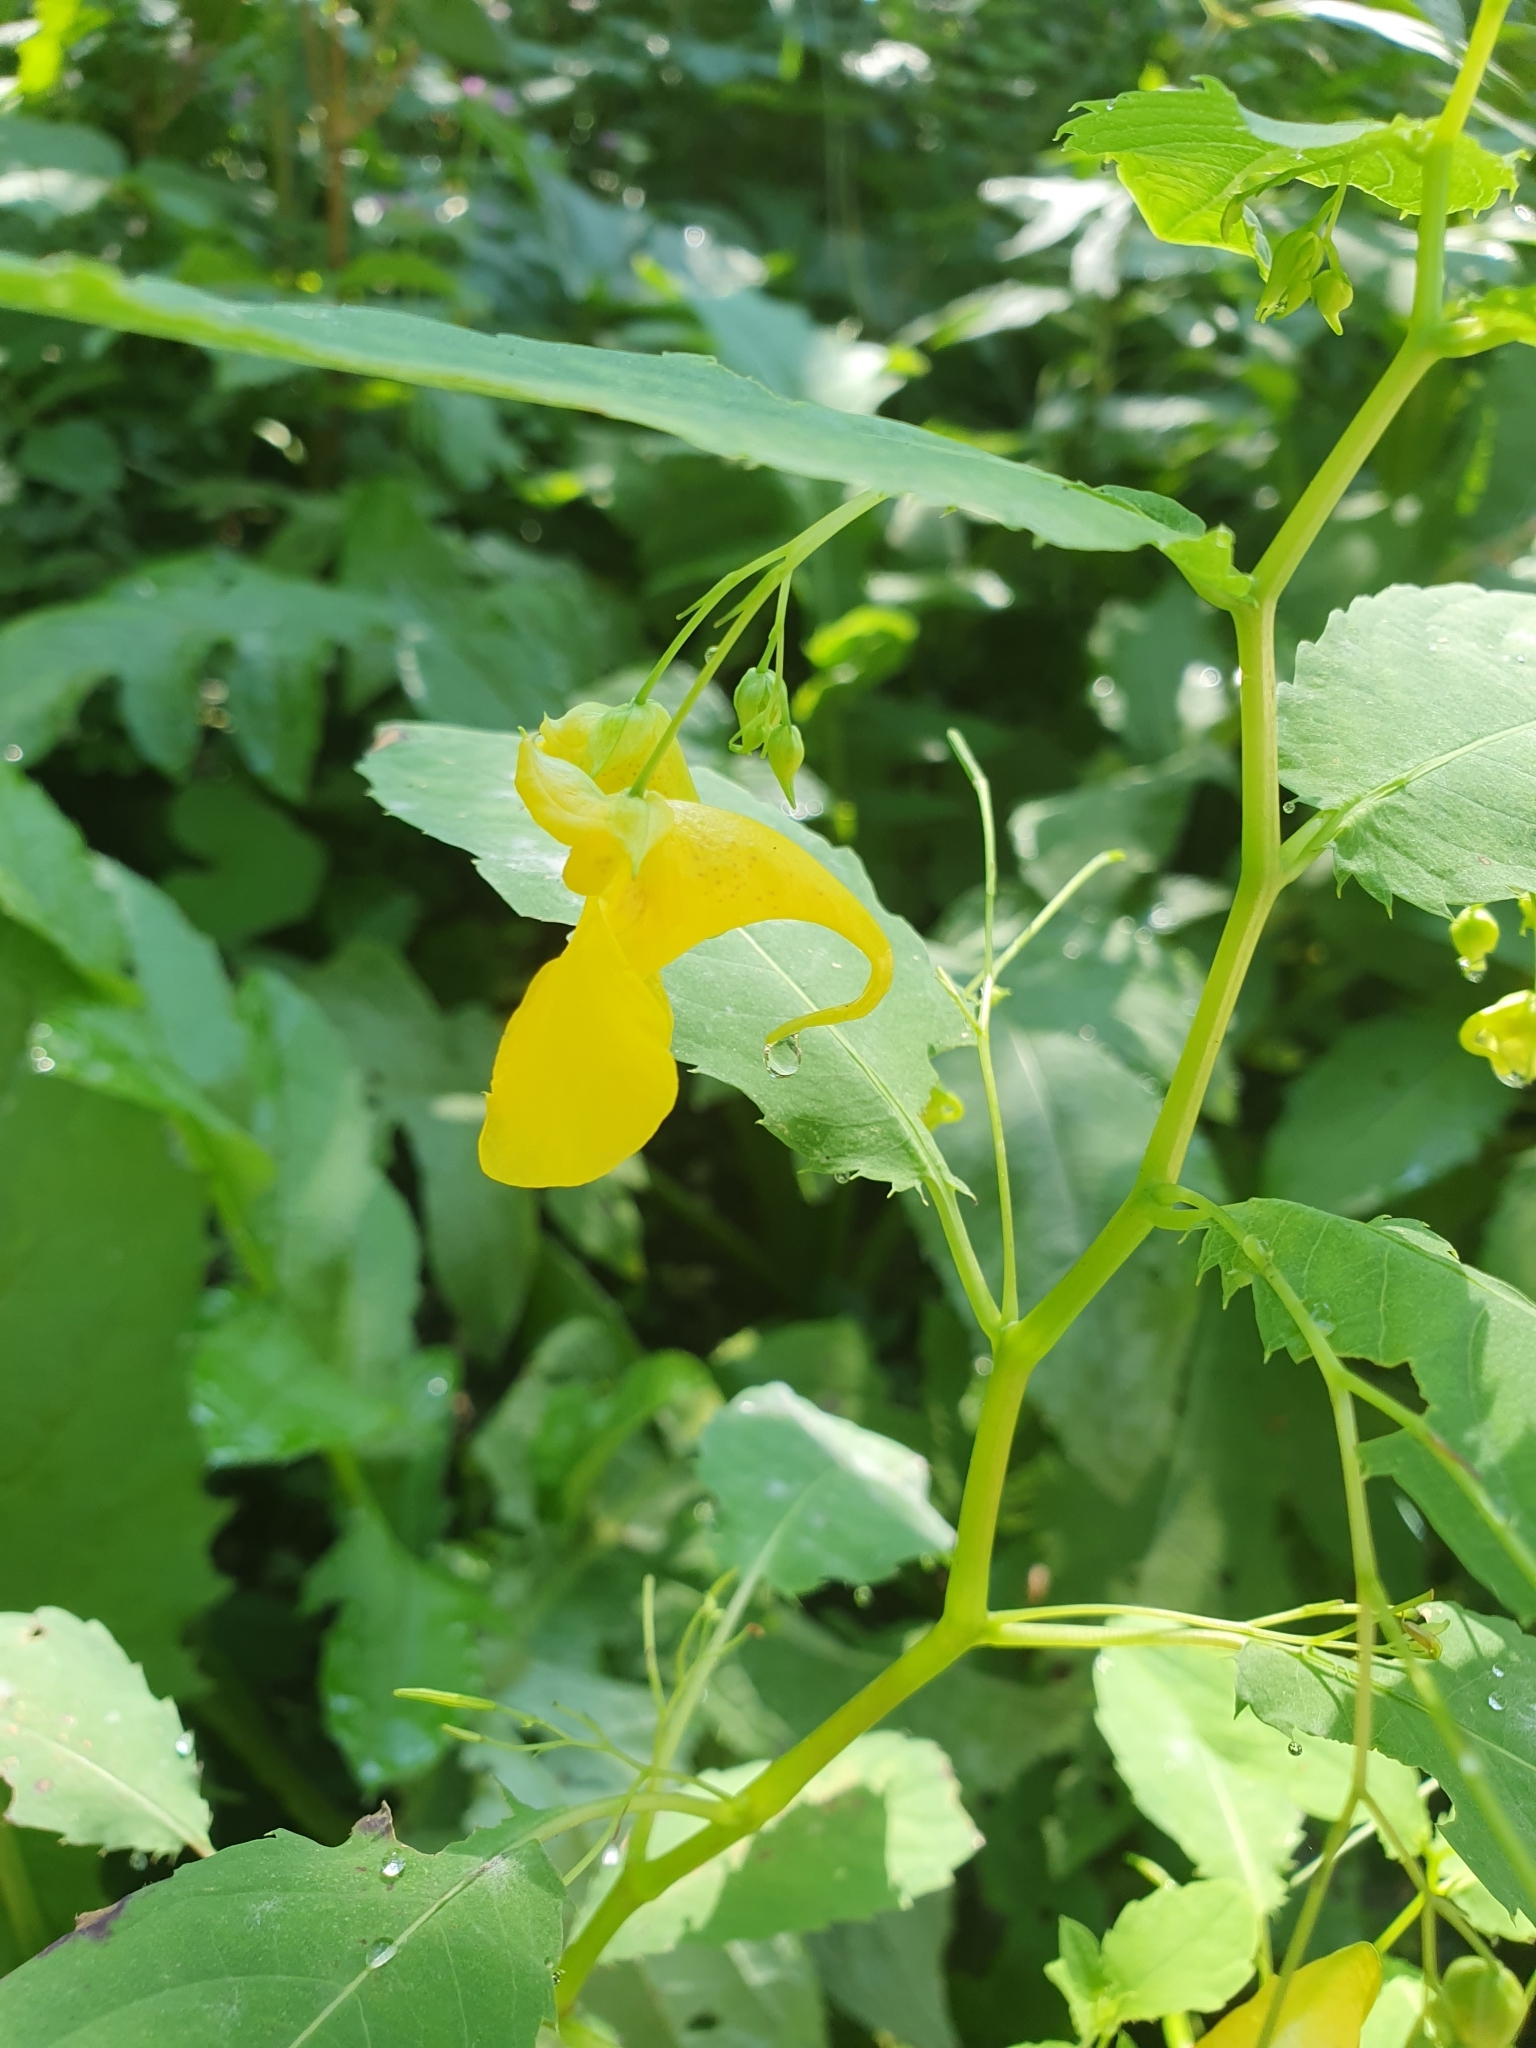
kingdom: Plantae
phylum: Tracheophyta
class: Magnoliopsida
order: Ericales
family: Balsaminaceae
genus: Impatiens
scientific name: Impatiens noli-tangere
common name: Touch-me-not balsam
